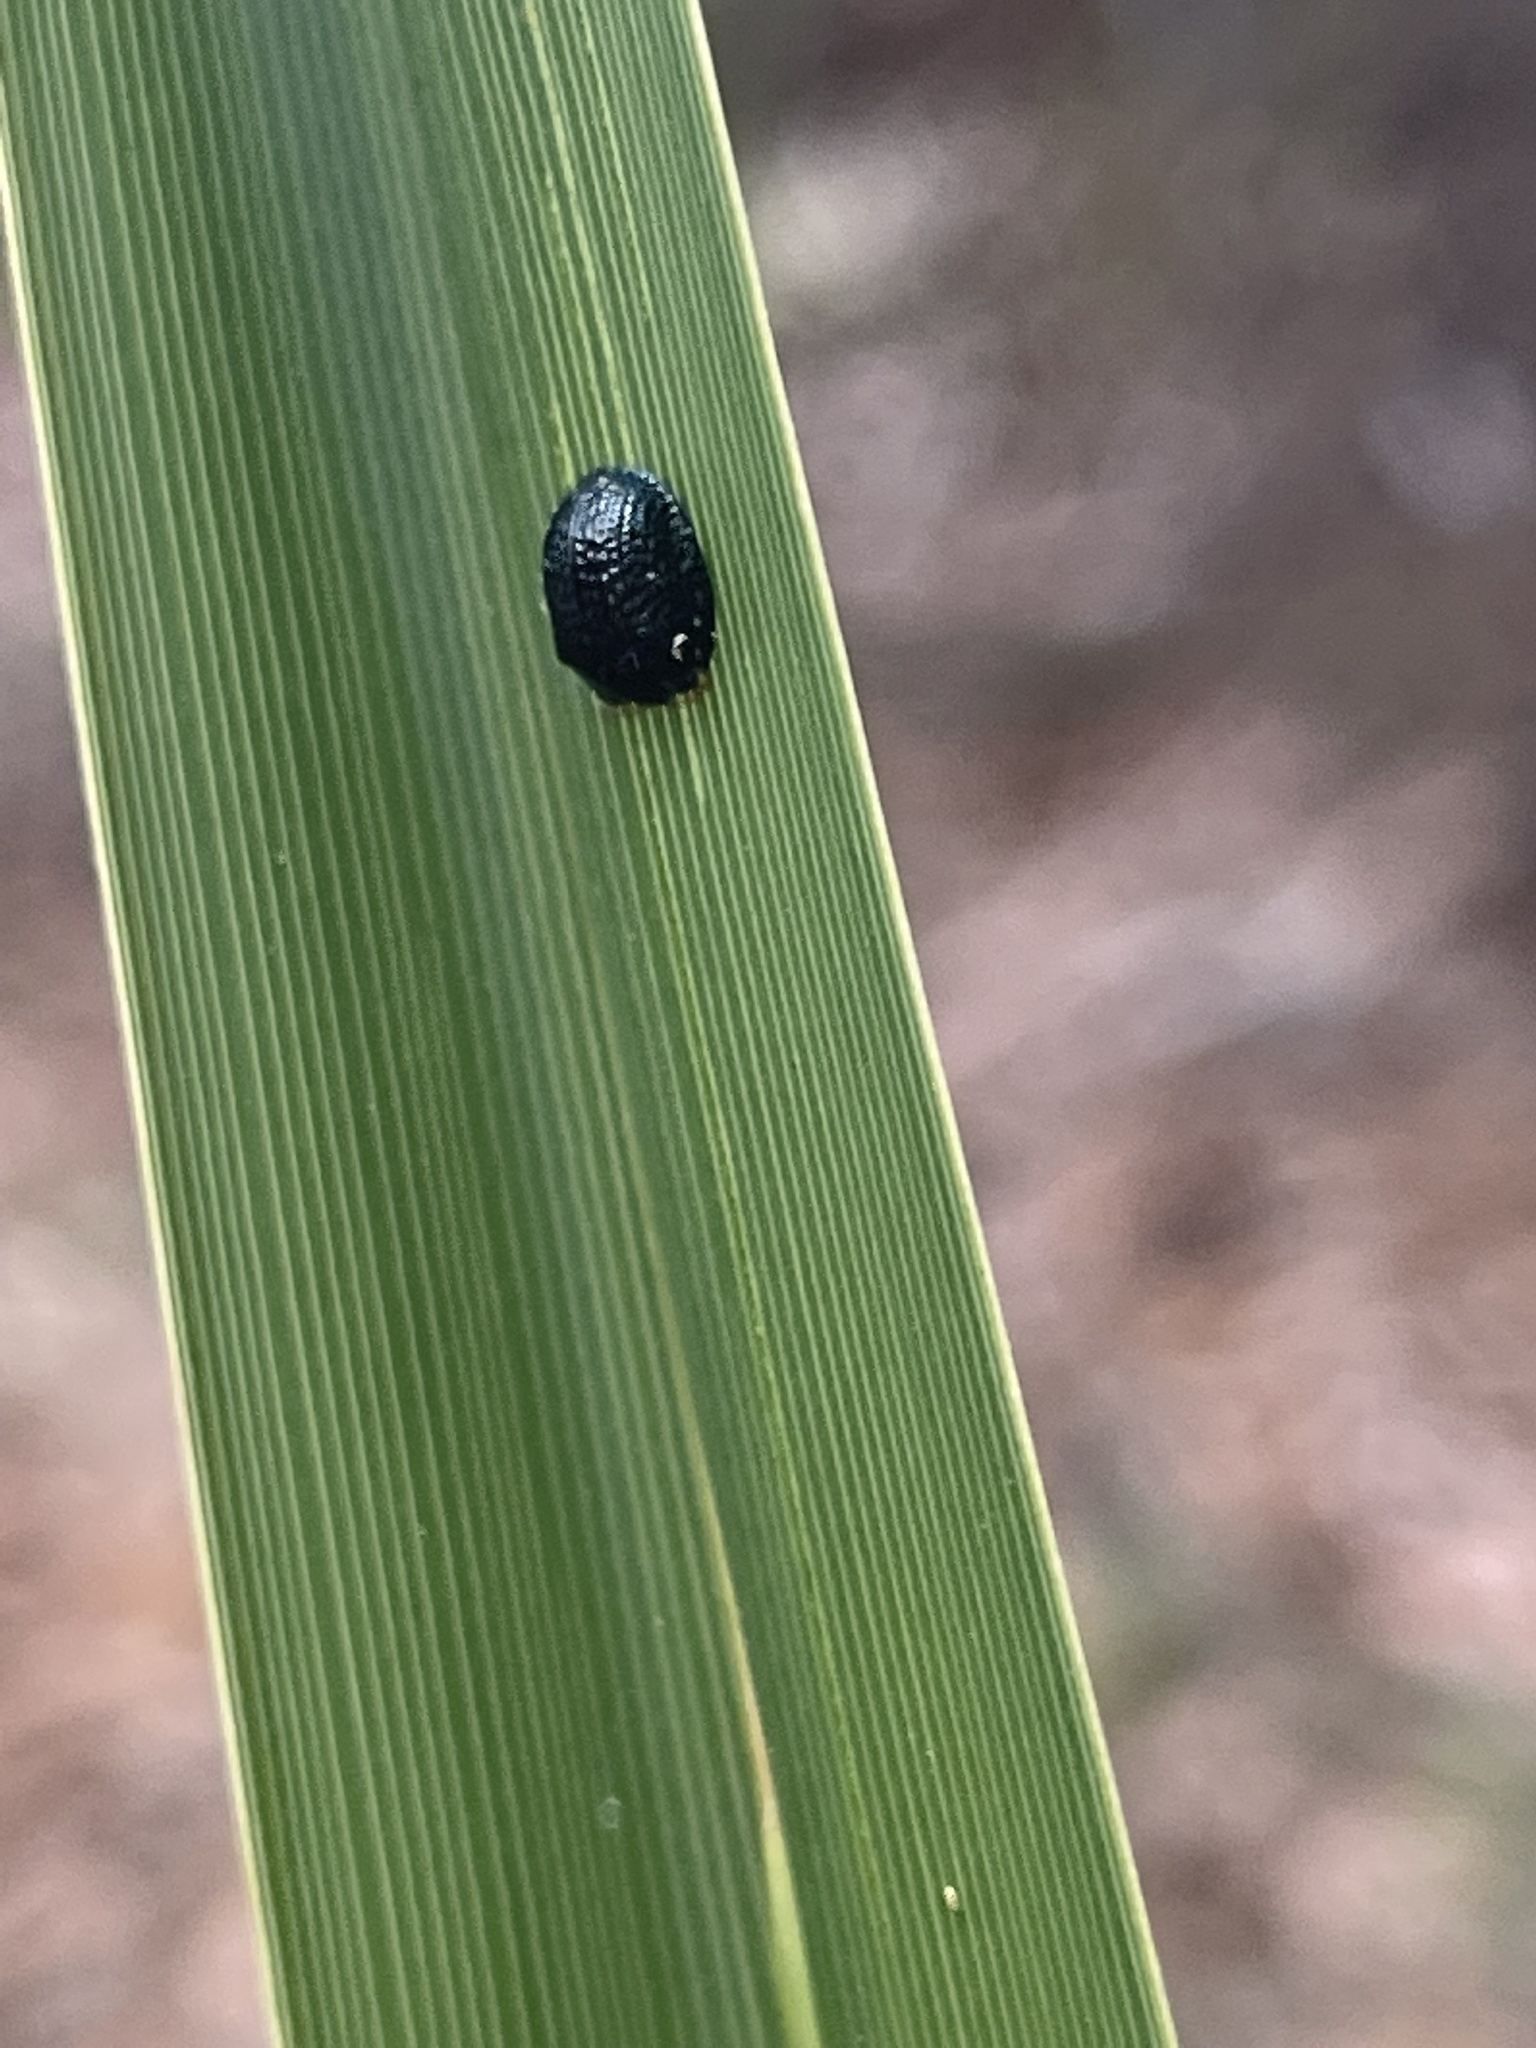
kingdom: Animalia
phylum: Arthropoda
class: Insecta
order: Coleoptera
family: Chrysomelidae
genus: Hemisphaerota
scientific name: Hemisphaerota cyanea
